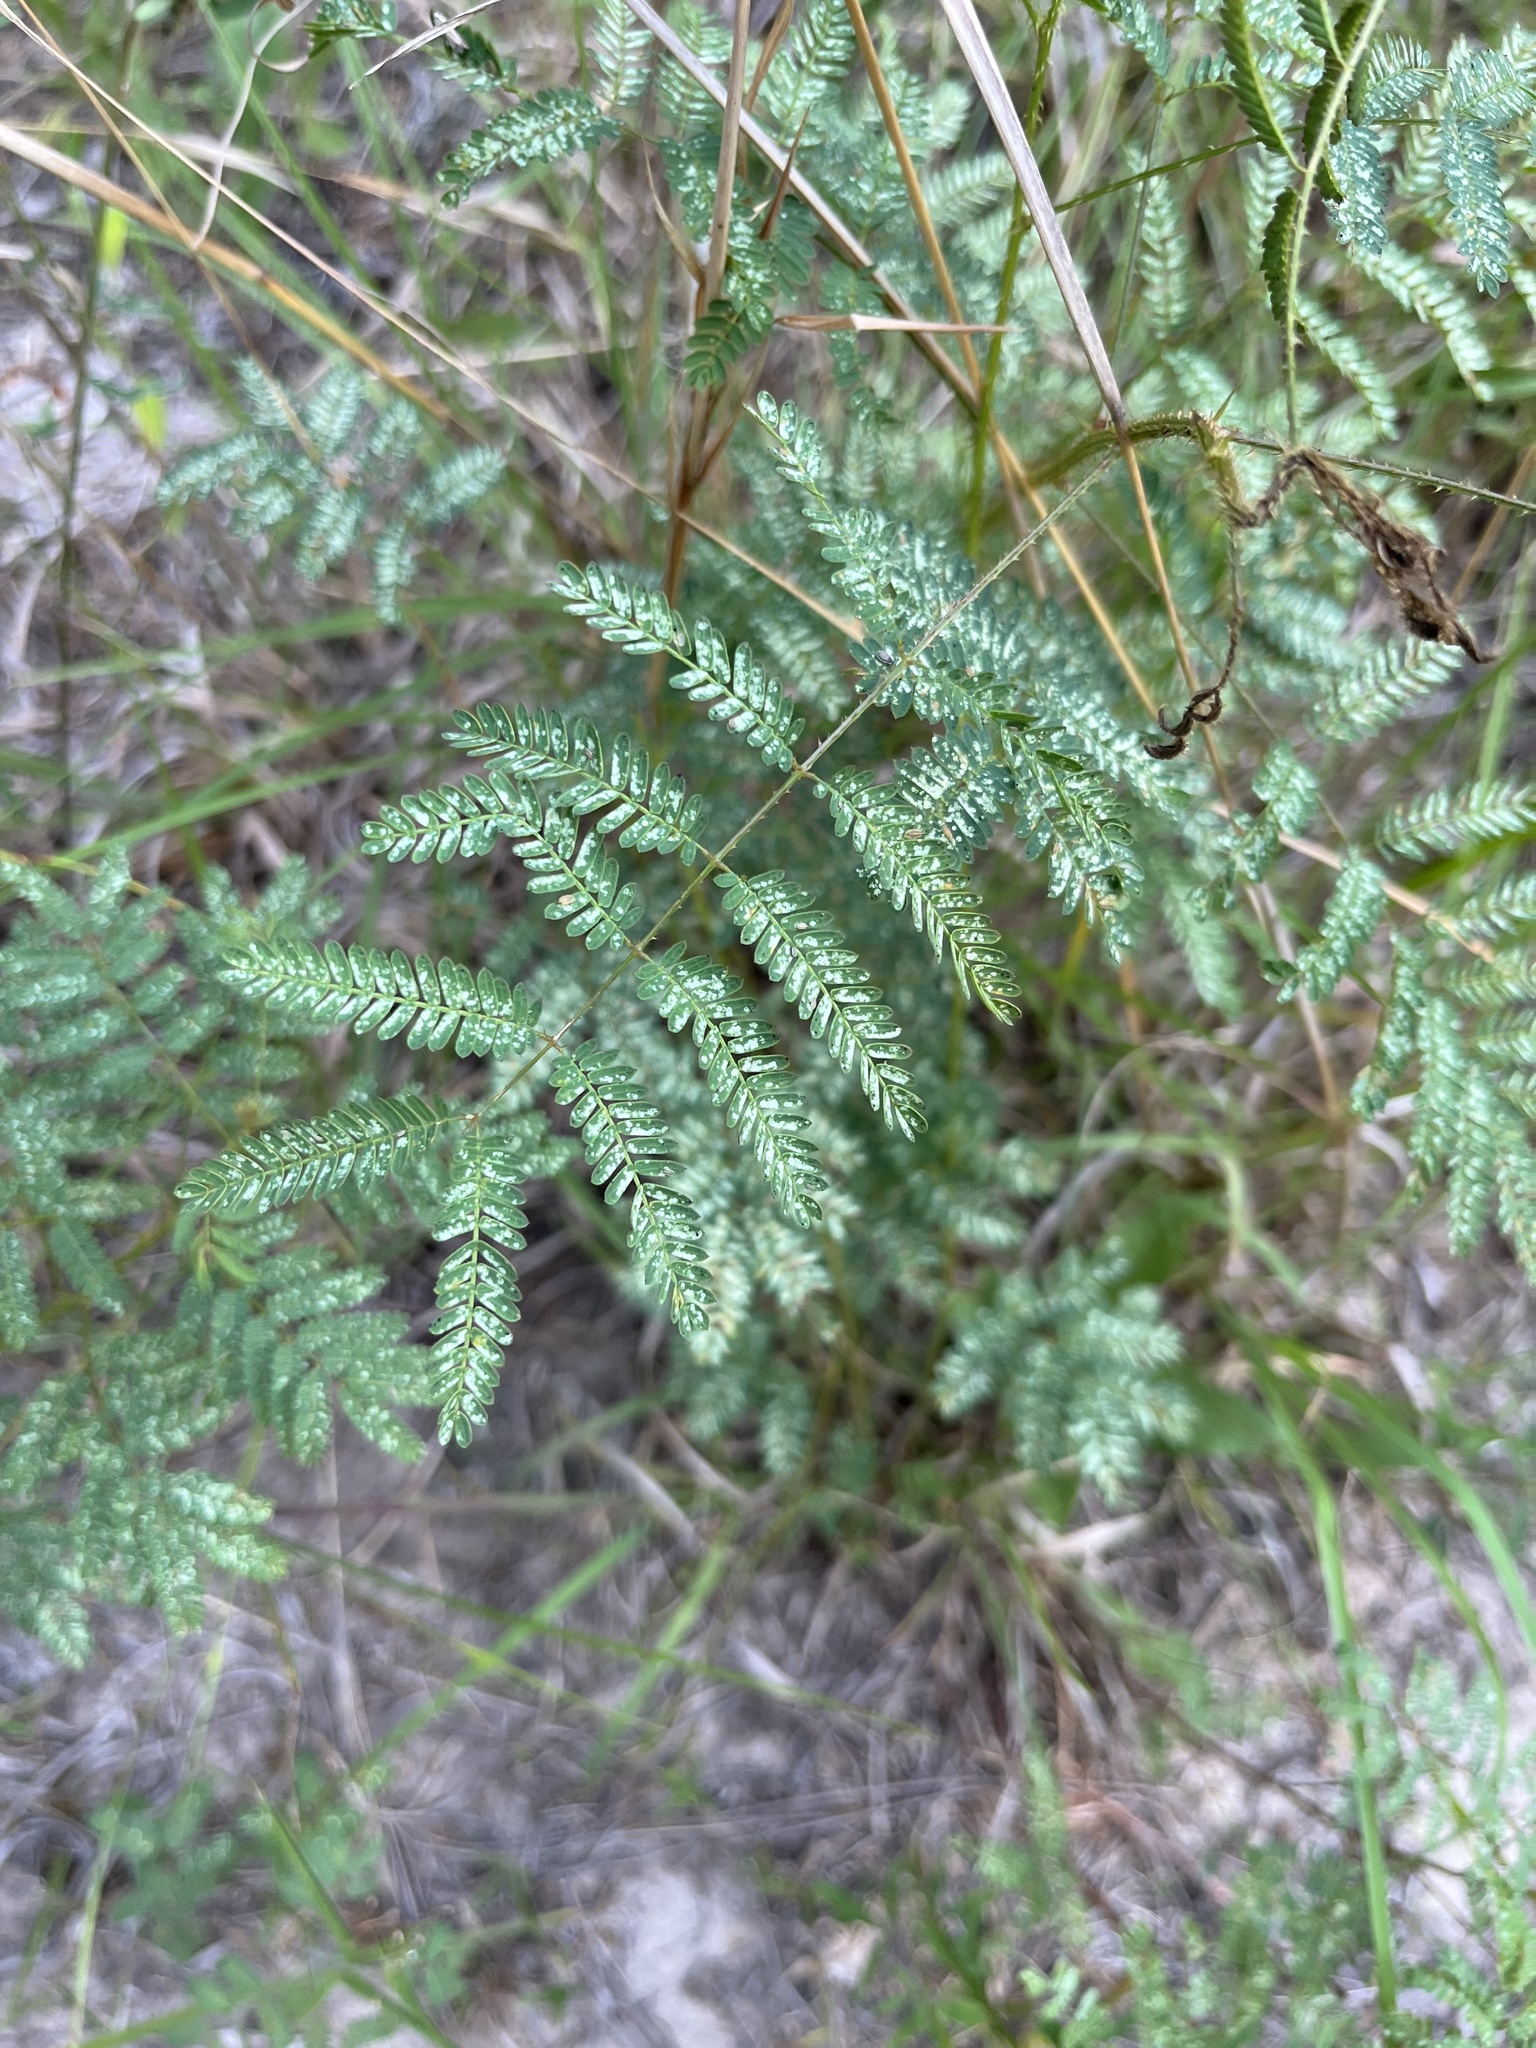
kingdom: Plantae
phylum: Tracheophyta
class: Magnoliopsida
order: Fabales
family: Fabaceae
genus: Mimosa
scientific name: Mimosa quadrivalvis
